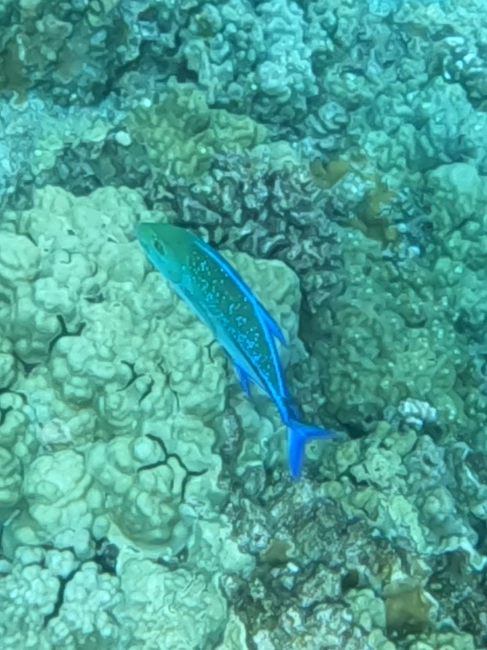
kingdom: Animalia
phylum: Chordata
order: Perciformes
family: Carangidae
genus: Caranx
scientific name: Caranx melampygus
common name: Bluefin trevally
